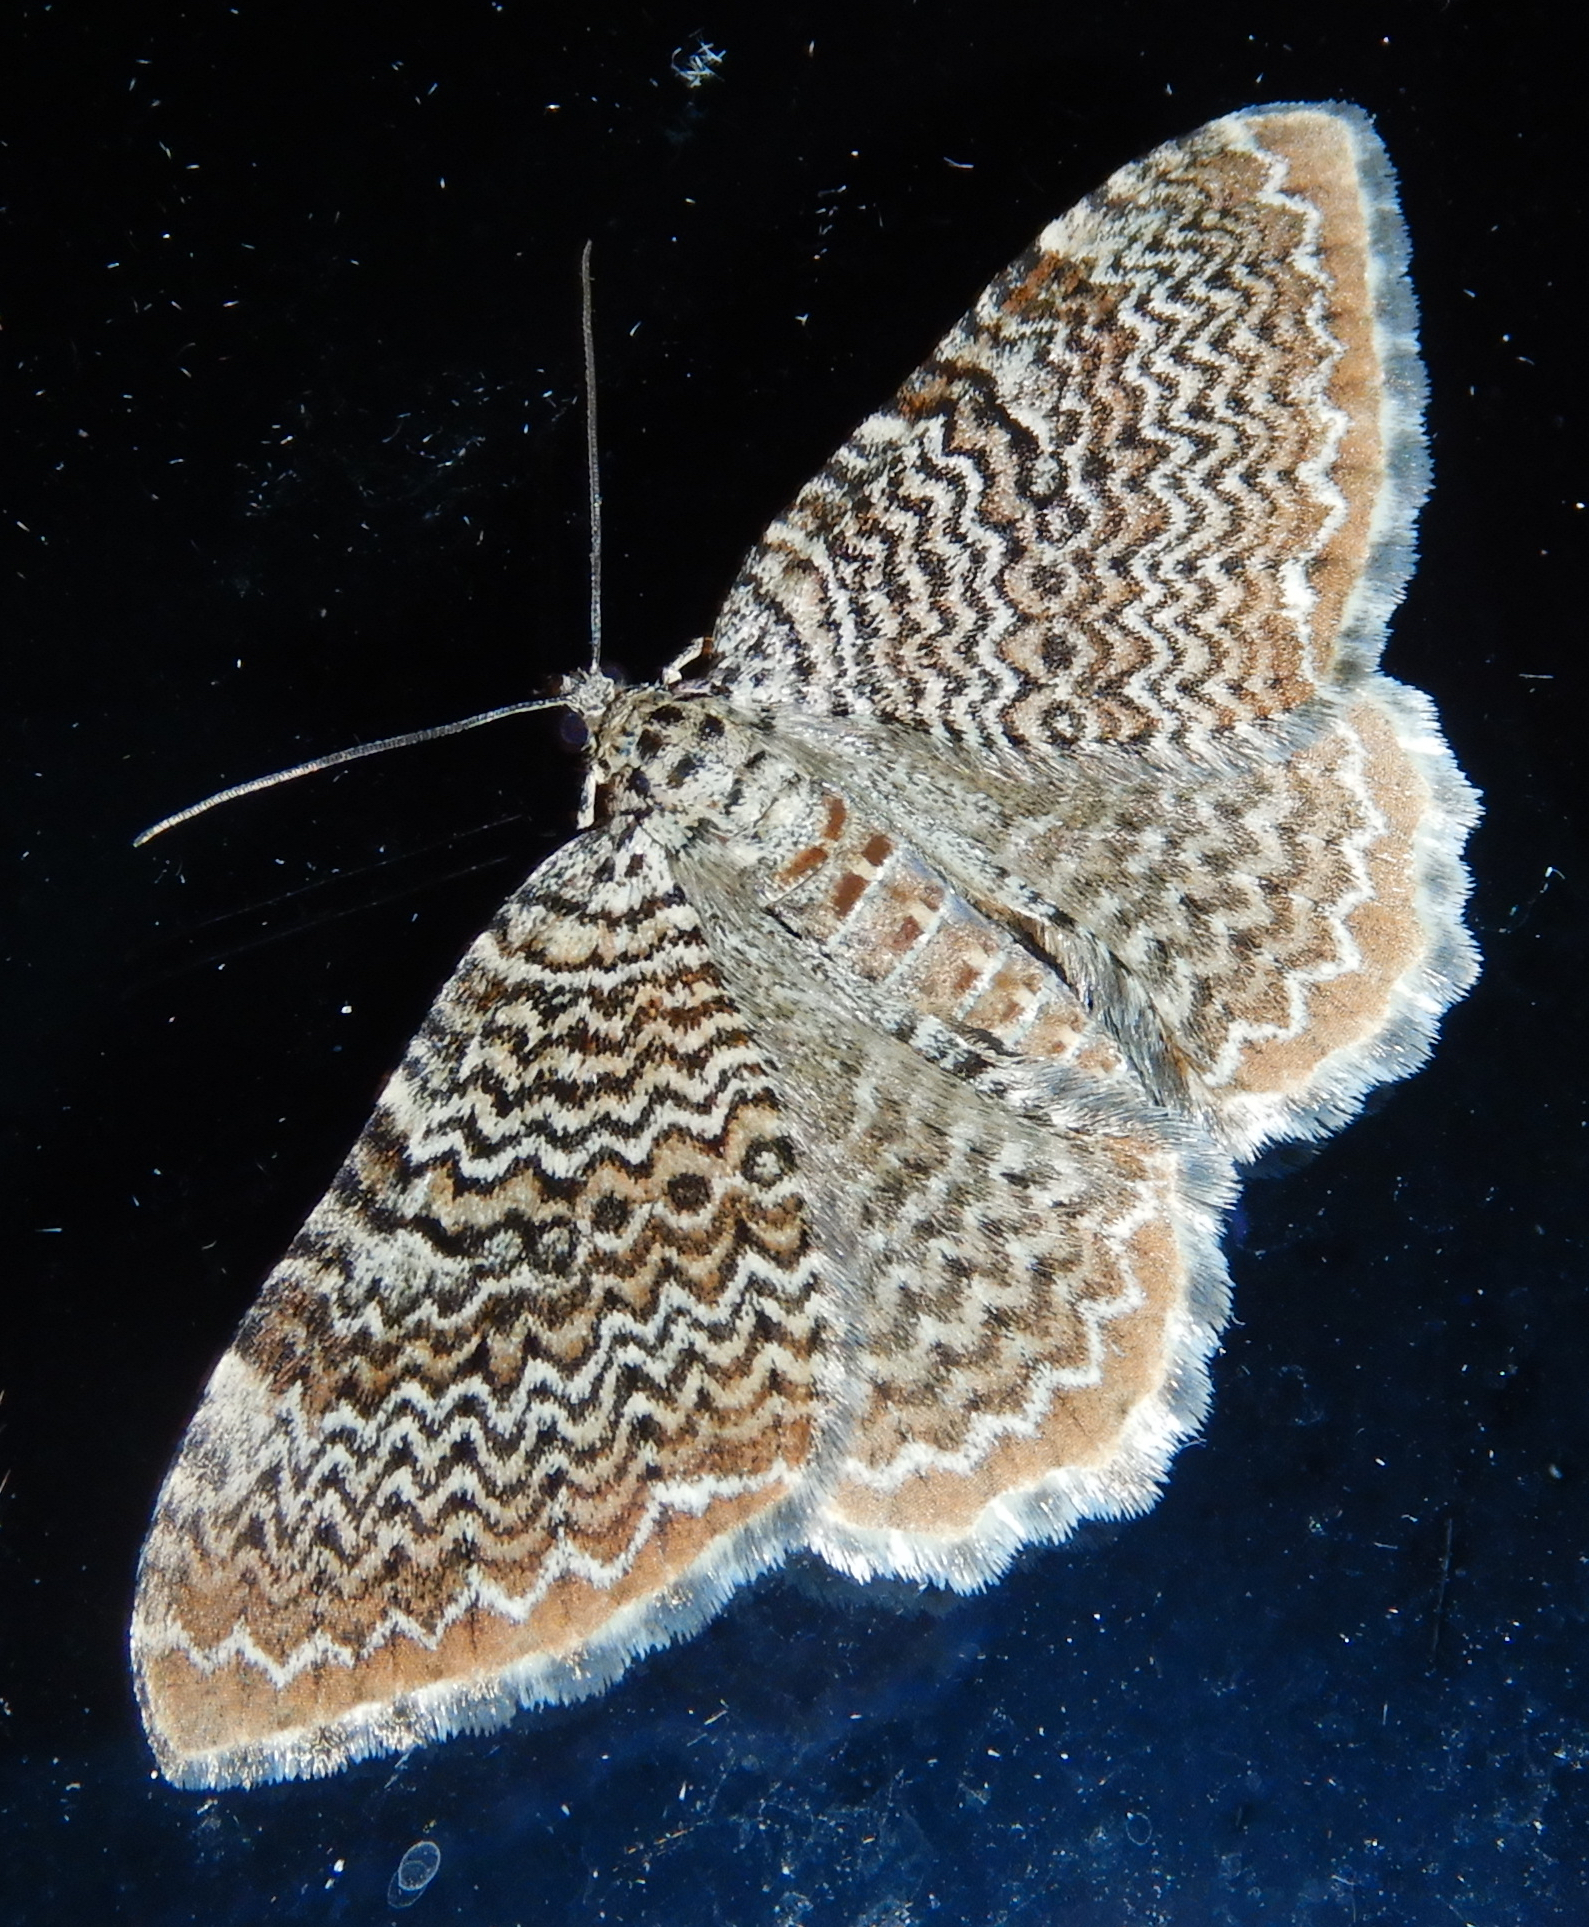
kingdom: Animalia
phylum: Arthropoda
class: Insecta
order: Lepidoptera
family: Geometridae
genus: Rheumaptera
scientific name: Rheumaptera
